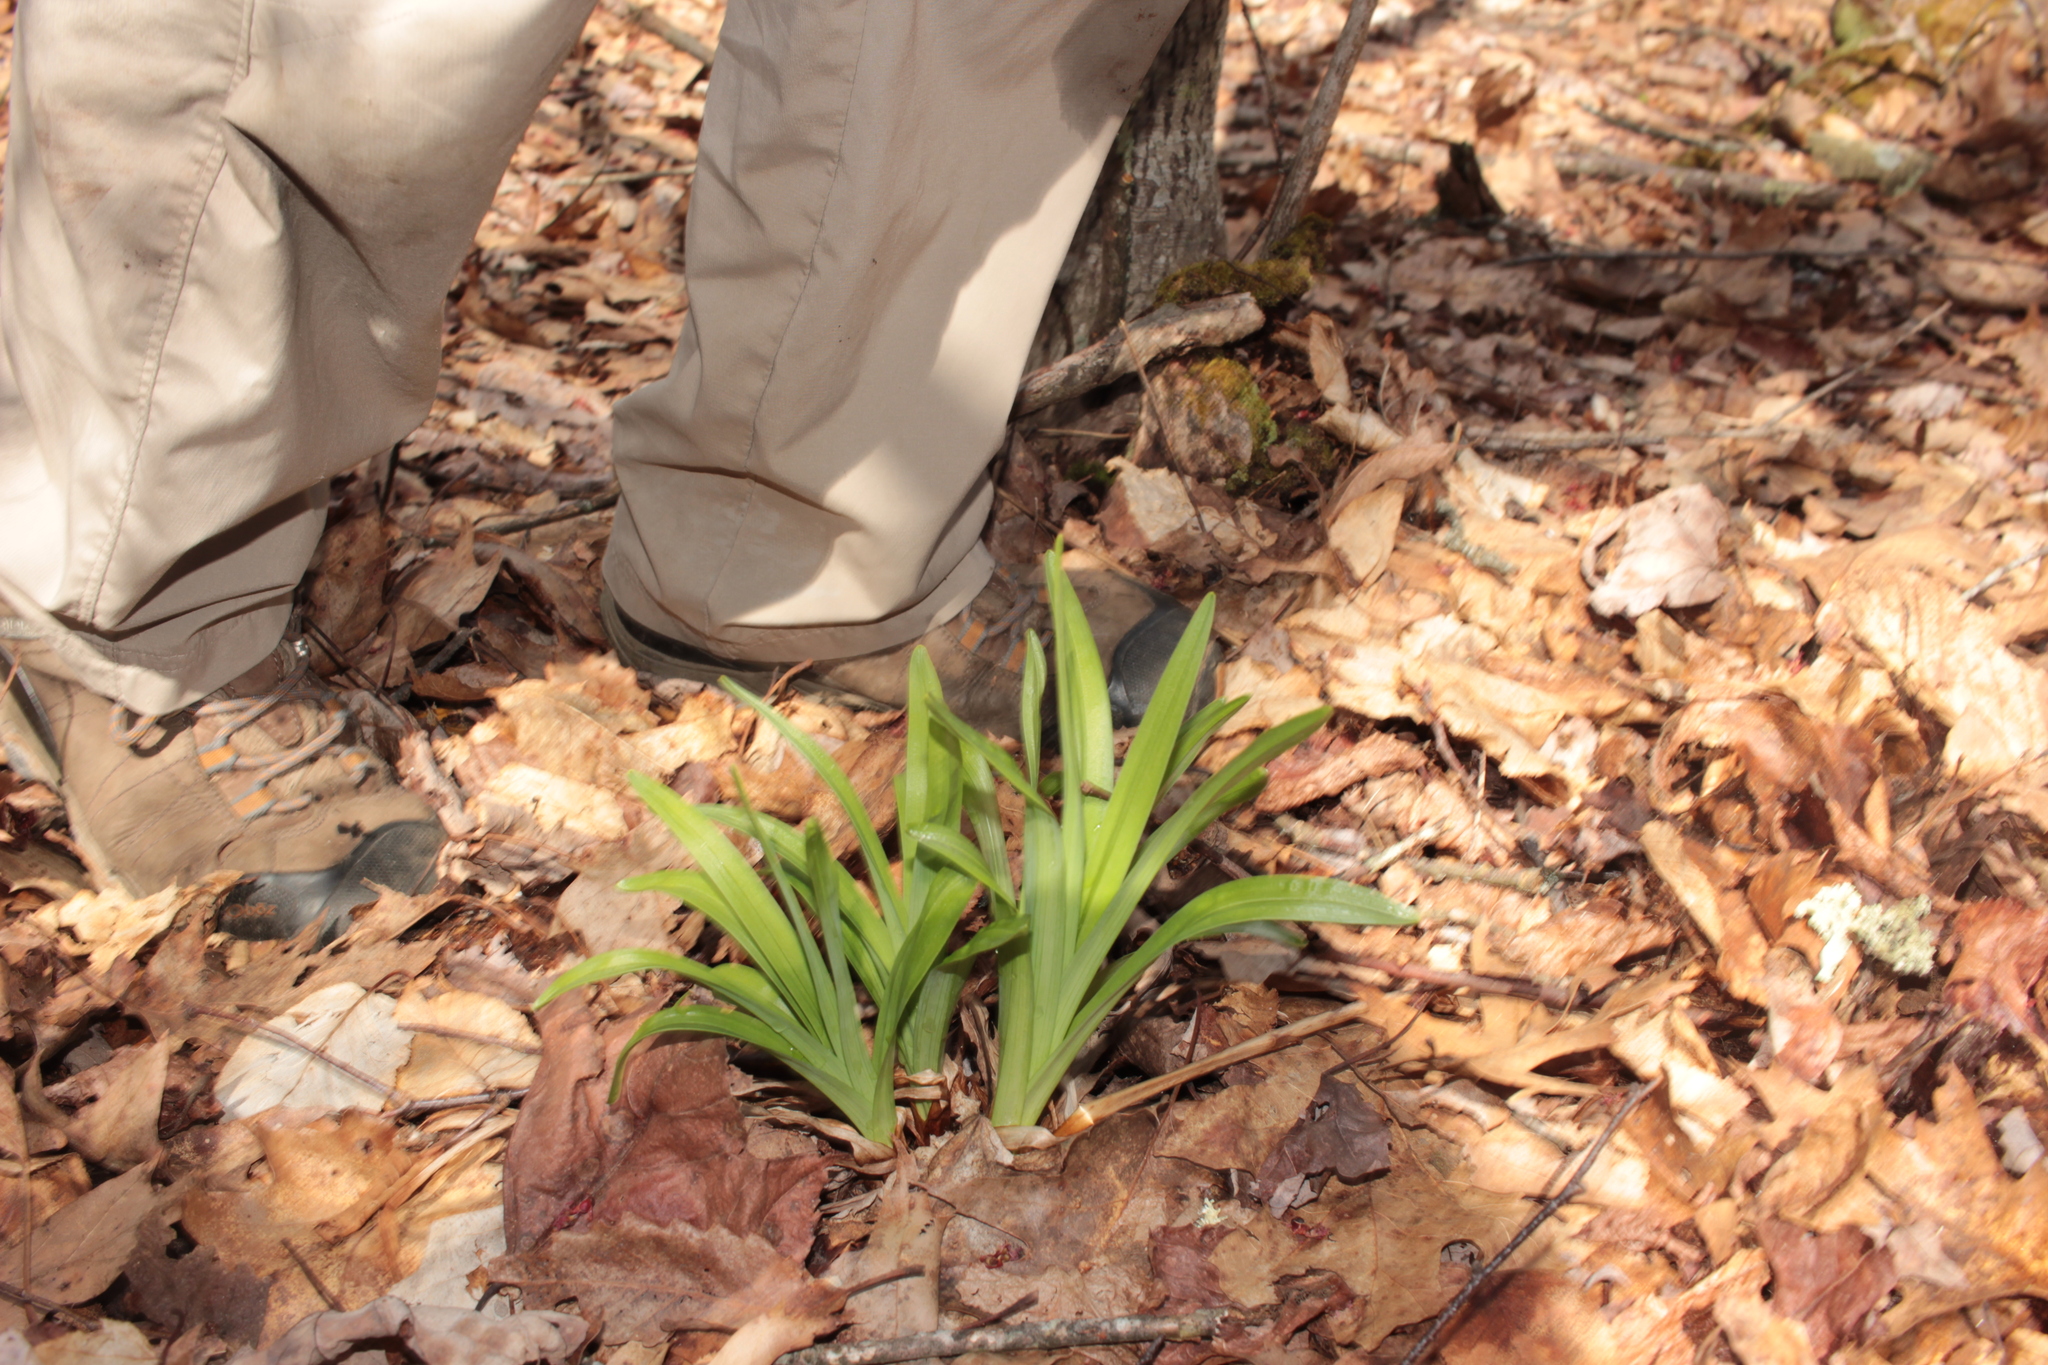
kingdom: Plantae
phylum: Tracheophyta
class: Liliopsida
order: Liliales
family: Melanthiaceae
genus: Amianthium
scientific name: Amianthium muscitoxicum
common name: Fly-poison
